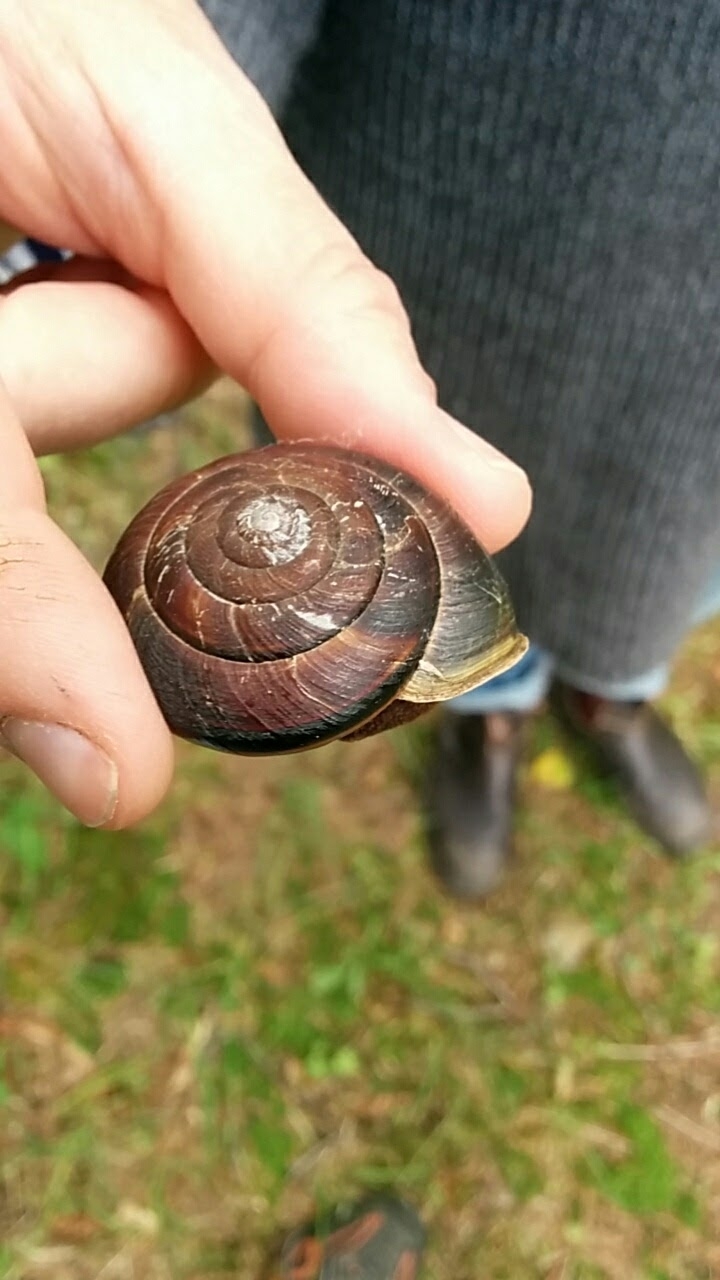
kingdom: Animalia
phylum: Mollusca
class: Gastropoda
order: Stylommatophora
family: Xanthonychidae
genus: Monadenia
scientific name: Monadenia fidelis
